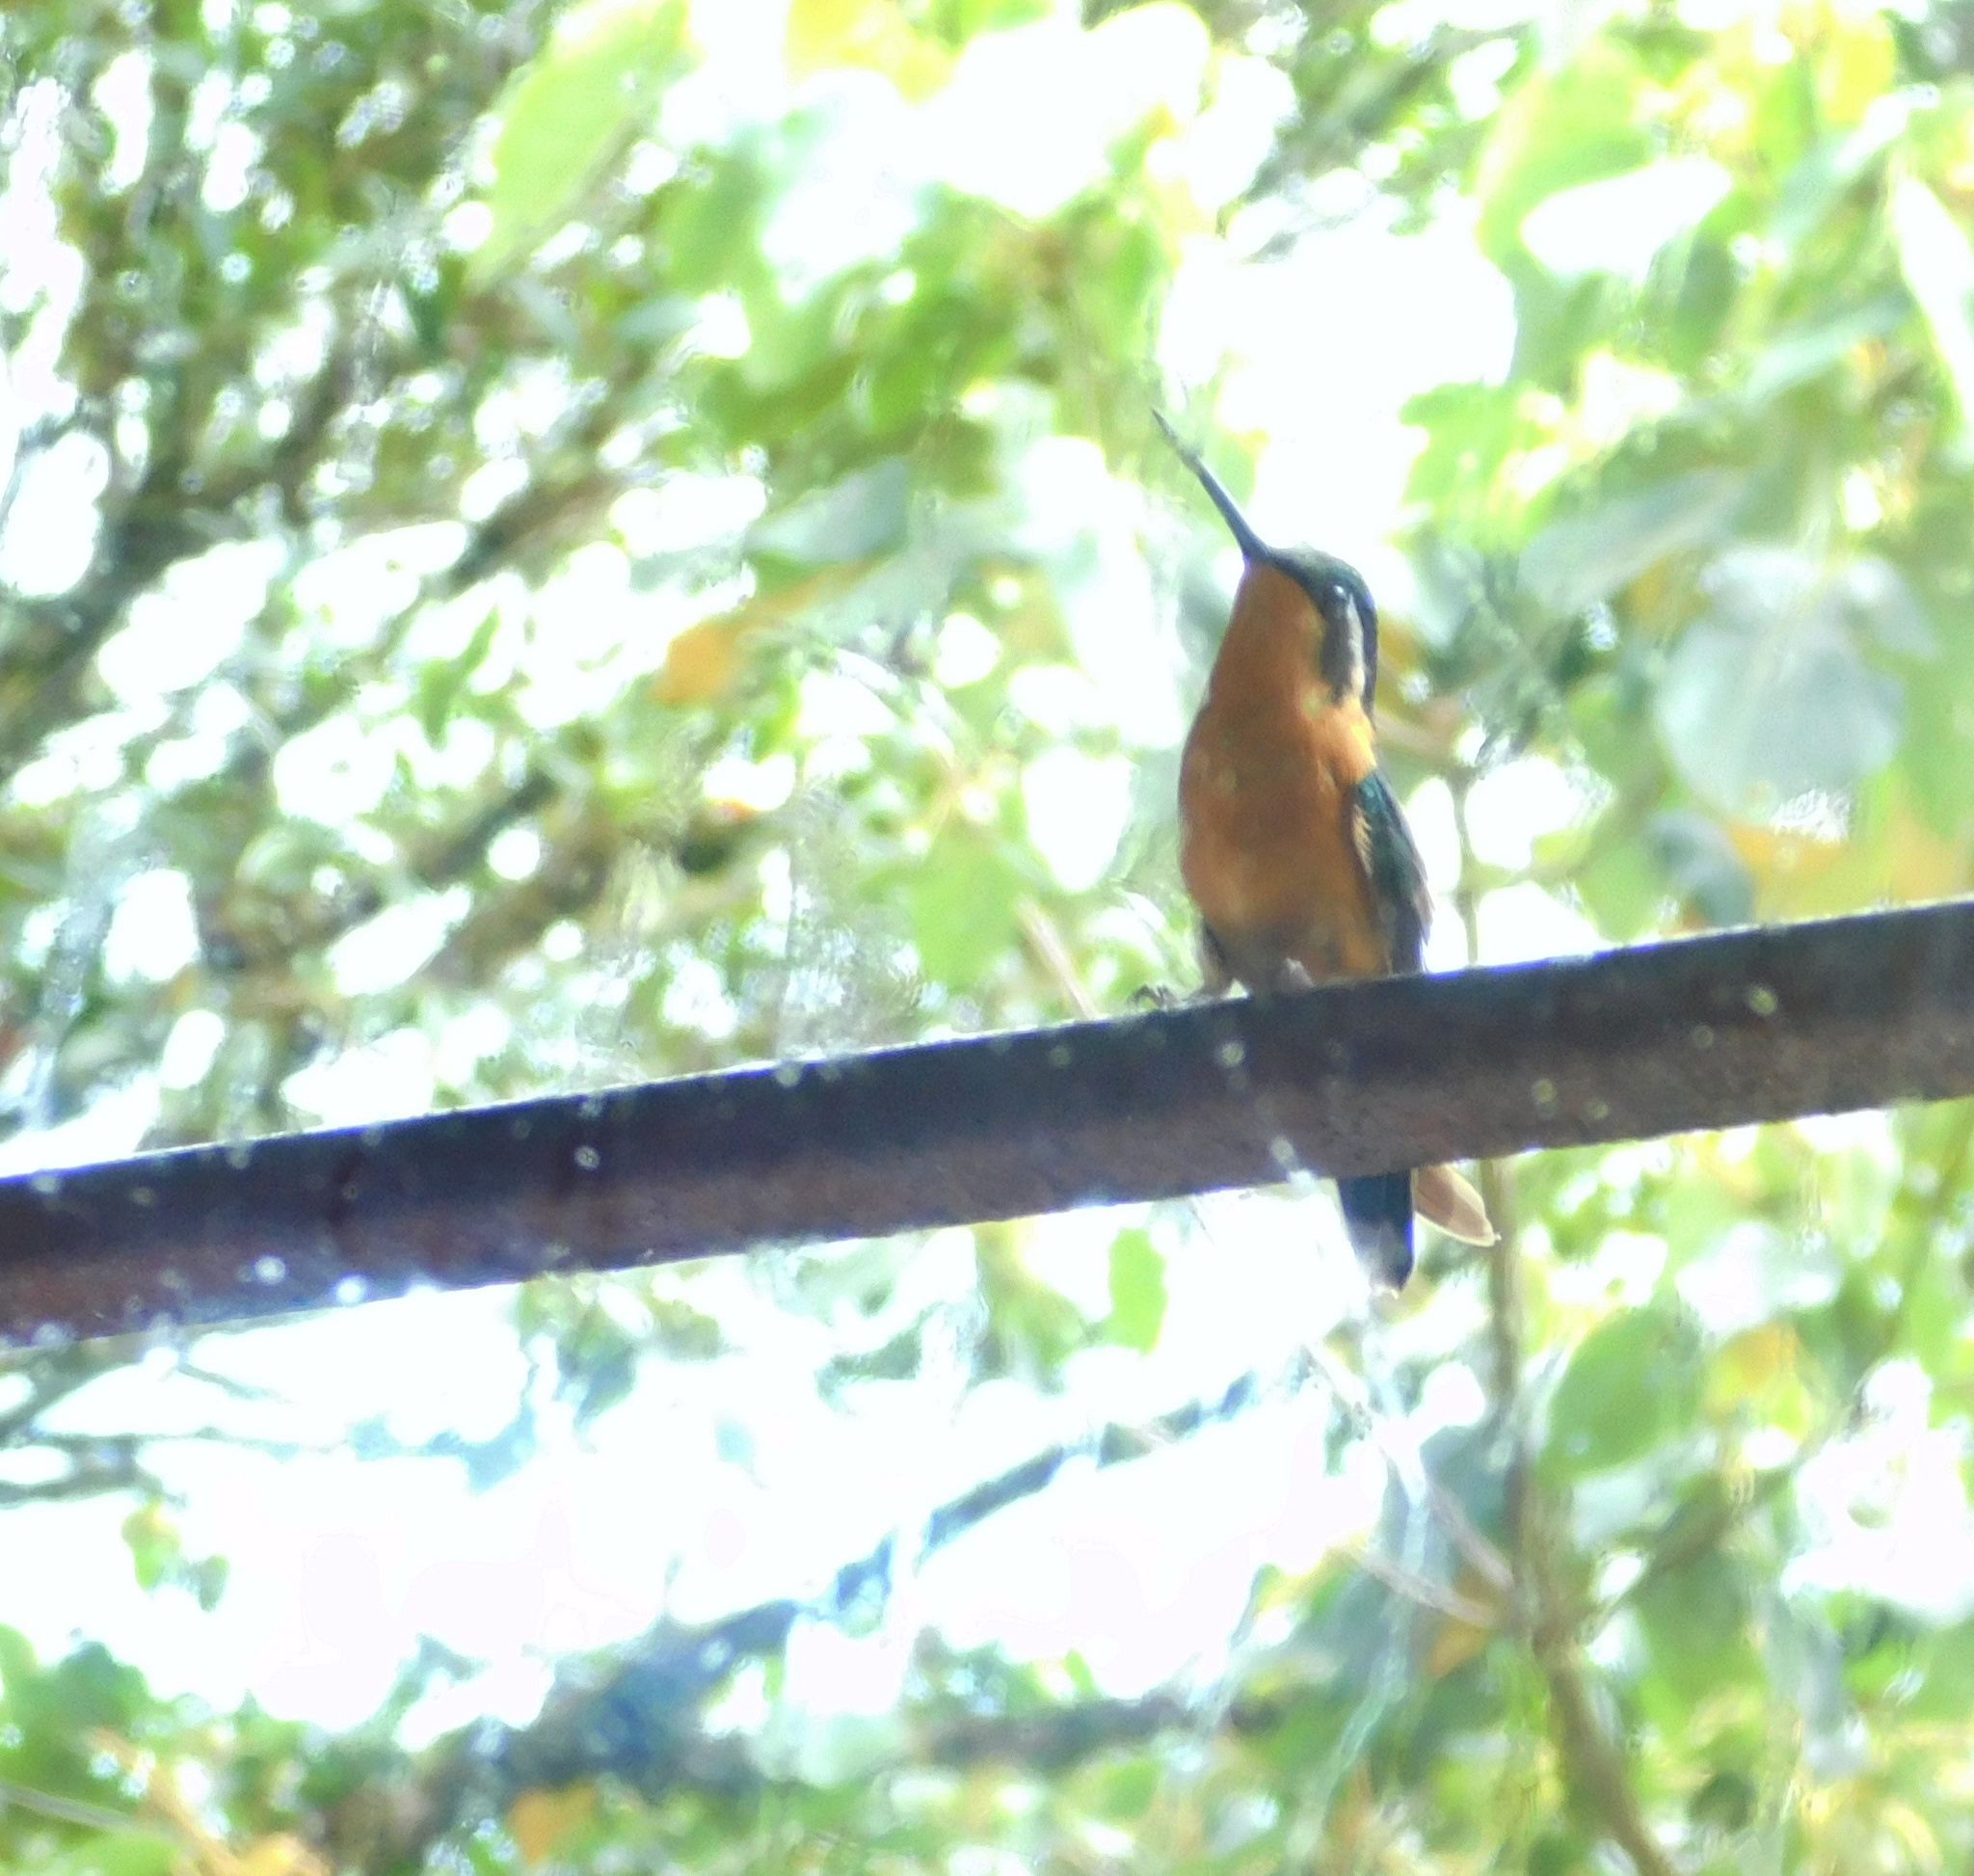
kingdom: Animalia
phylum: Chordata
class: Aves
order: Apodiformes
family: Trochilidae
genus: Lampornis
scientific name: Lampornis calolaemus
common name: Purple-throated mountain-gem
